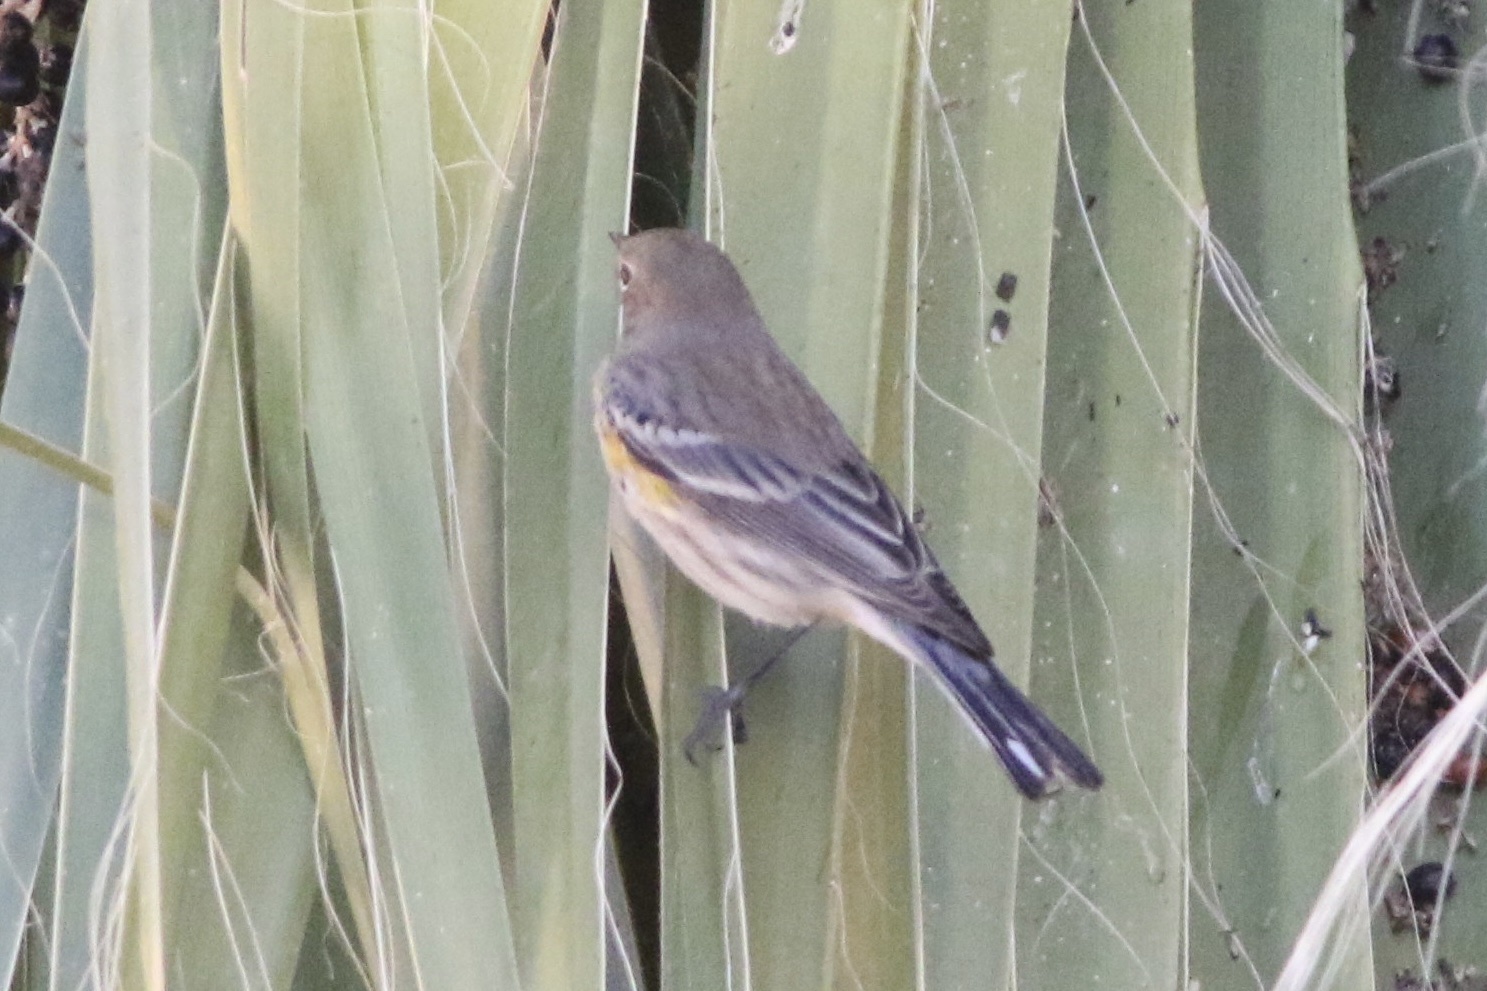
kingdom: Animalia
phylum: Chordata
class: Aves
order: Passeriformes
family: Parulidae
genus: Setophaga
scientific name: Setophaga coronata
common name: Myrtle warbler
